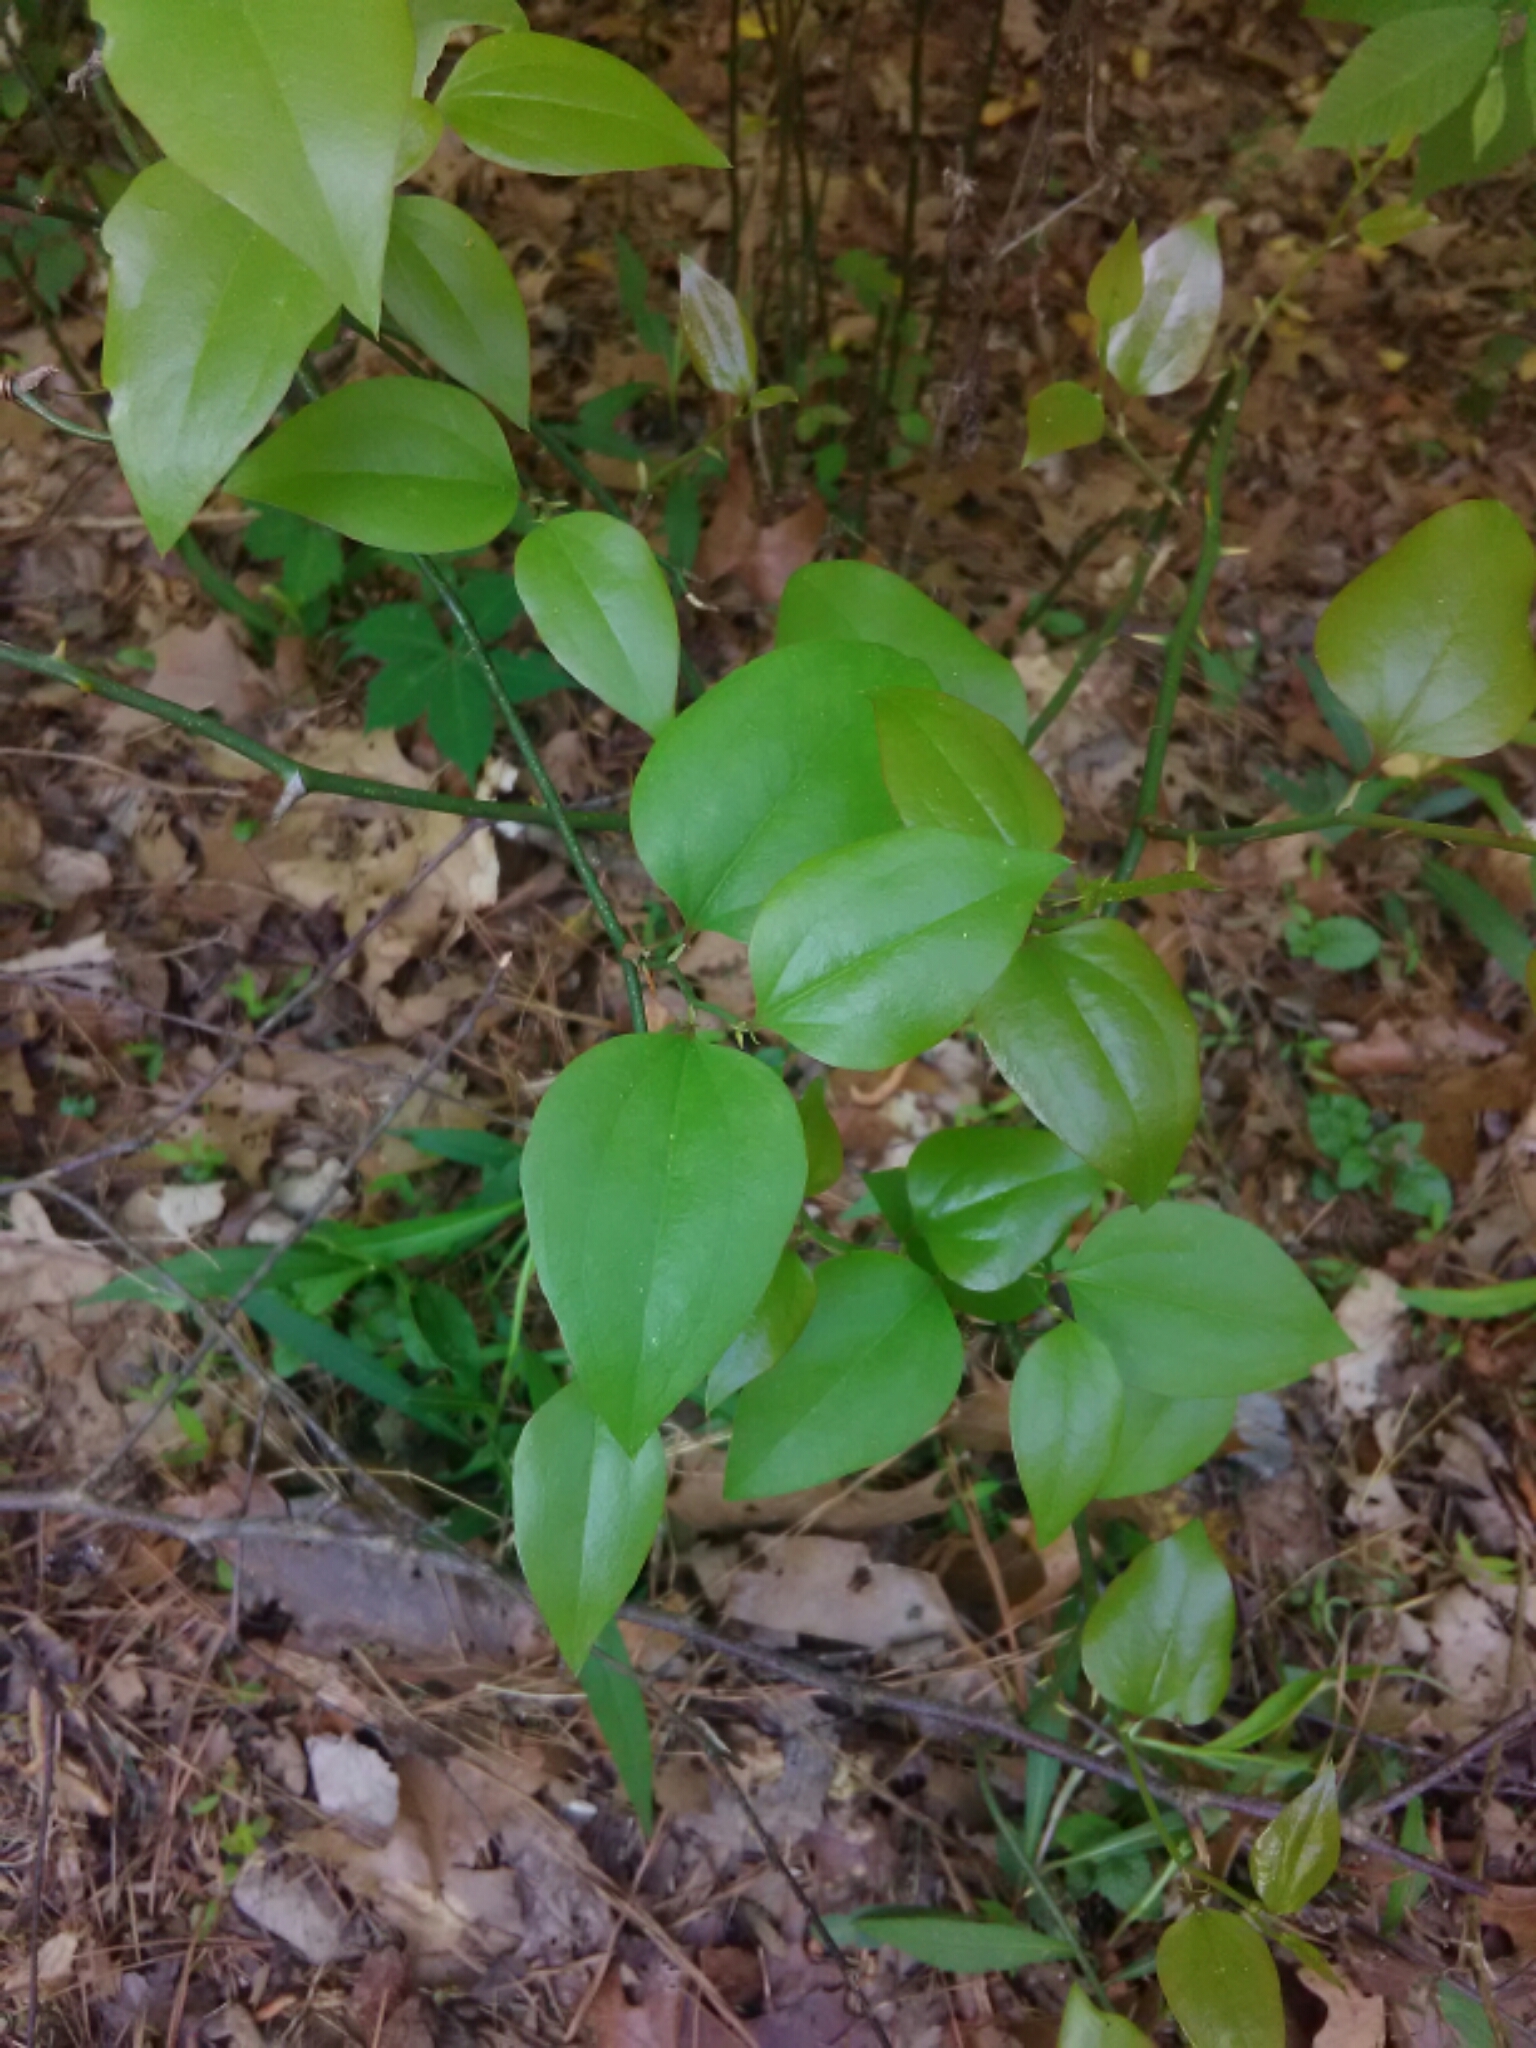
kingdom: Plantae
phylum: Tracheophyta
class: Liliopsida
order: Liliales
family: Smilacaceae
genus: Smilax
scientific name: Smilax rotundifolia
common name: Bullbriar
